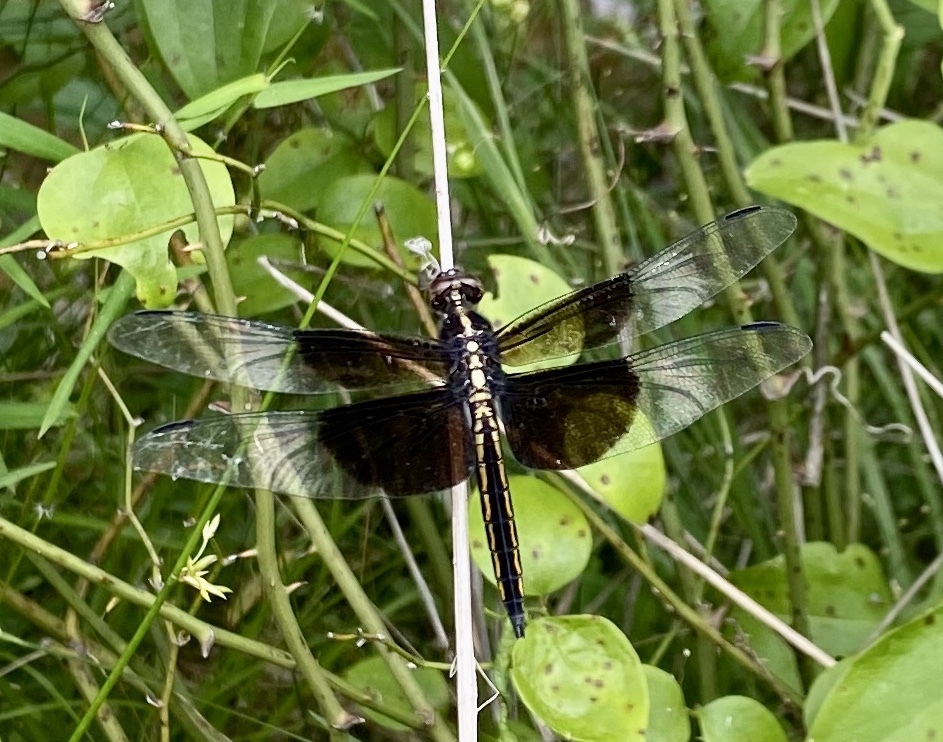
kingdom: Animalia
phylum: Arthropoda
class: Insecta
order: Odonata
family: Libellulidae
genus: Libellula
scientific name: Libellula luctuosa
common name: Widow skimmer
